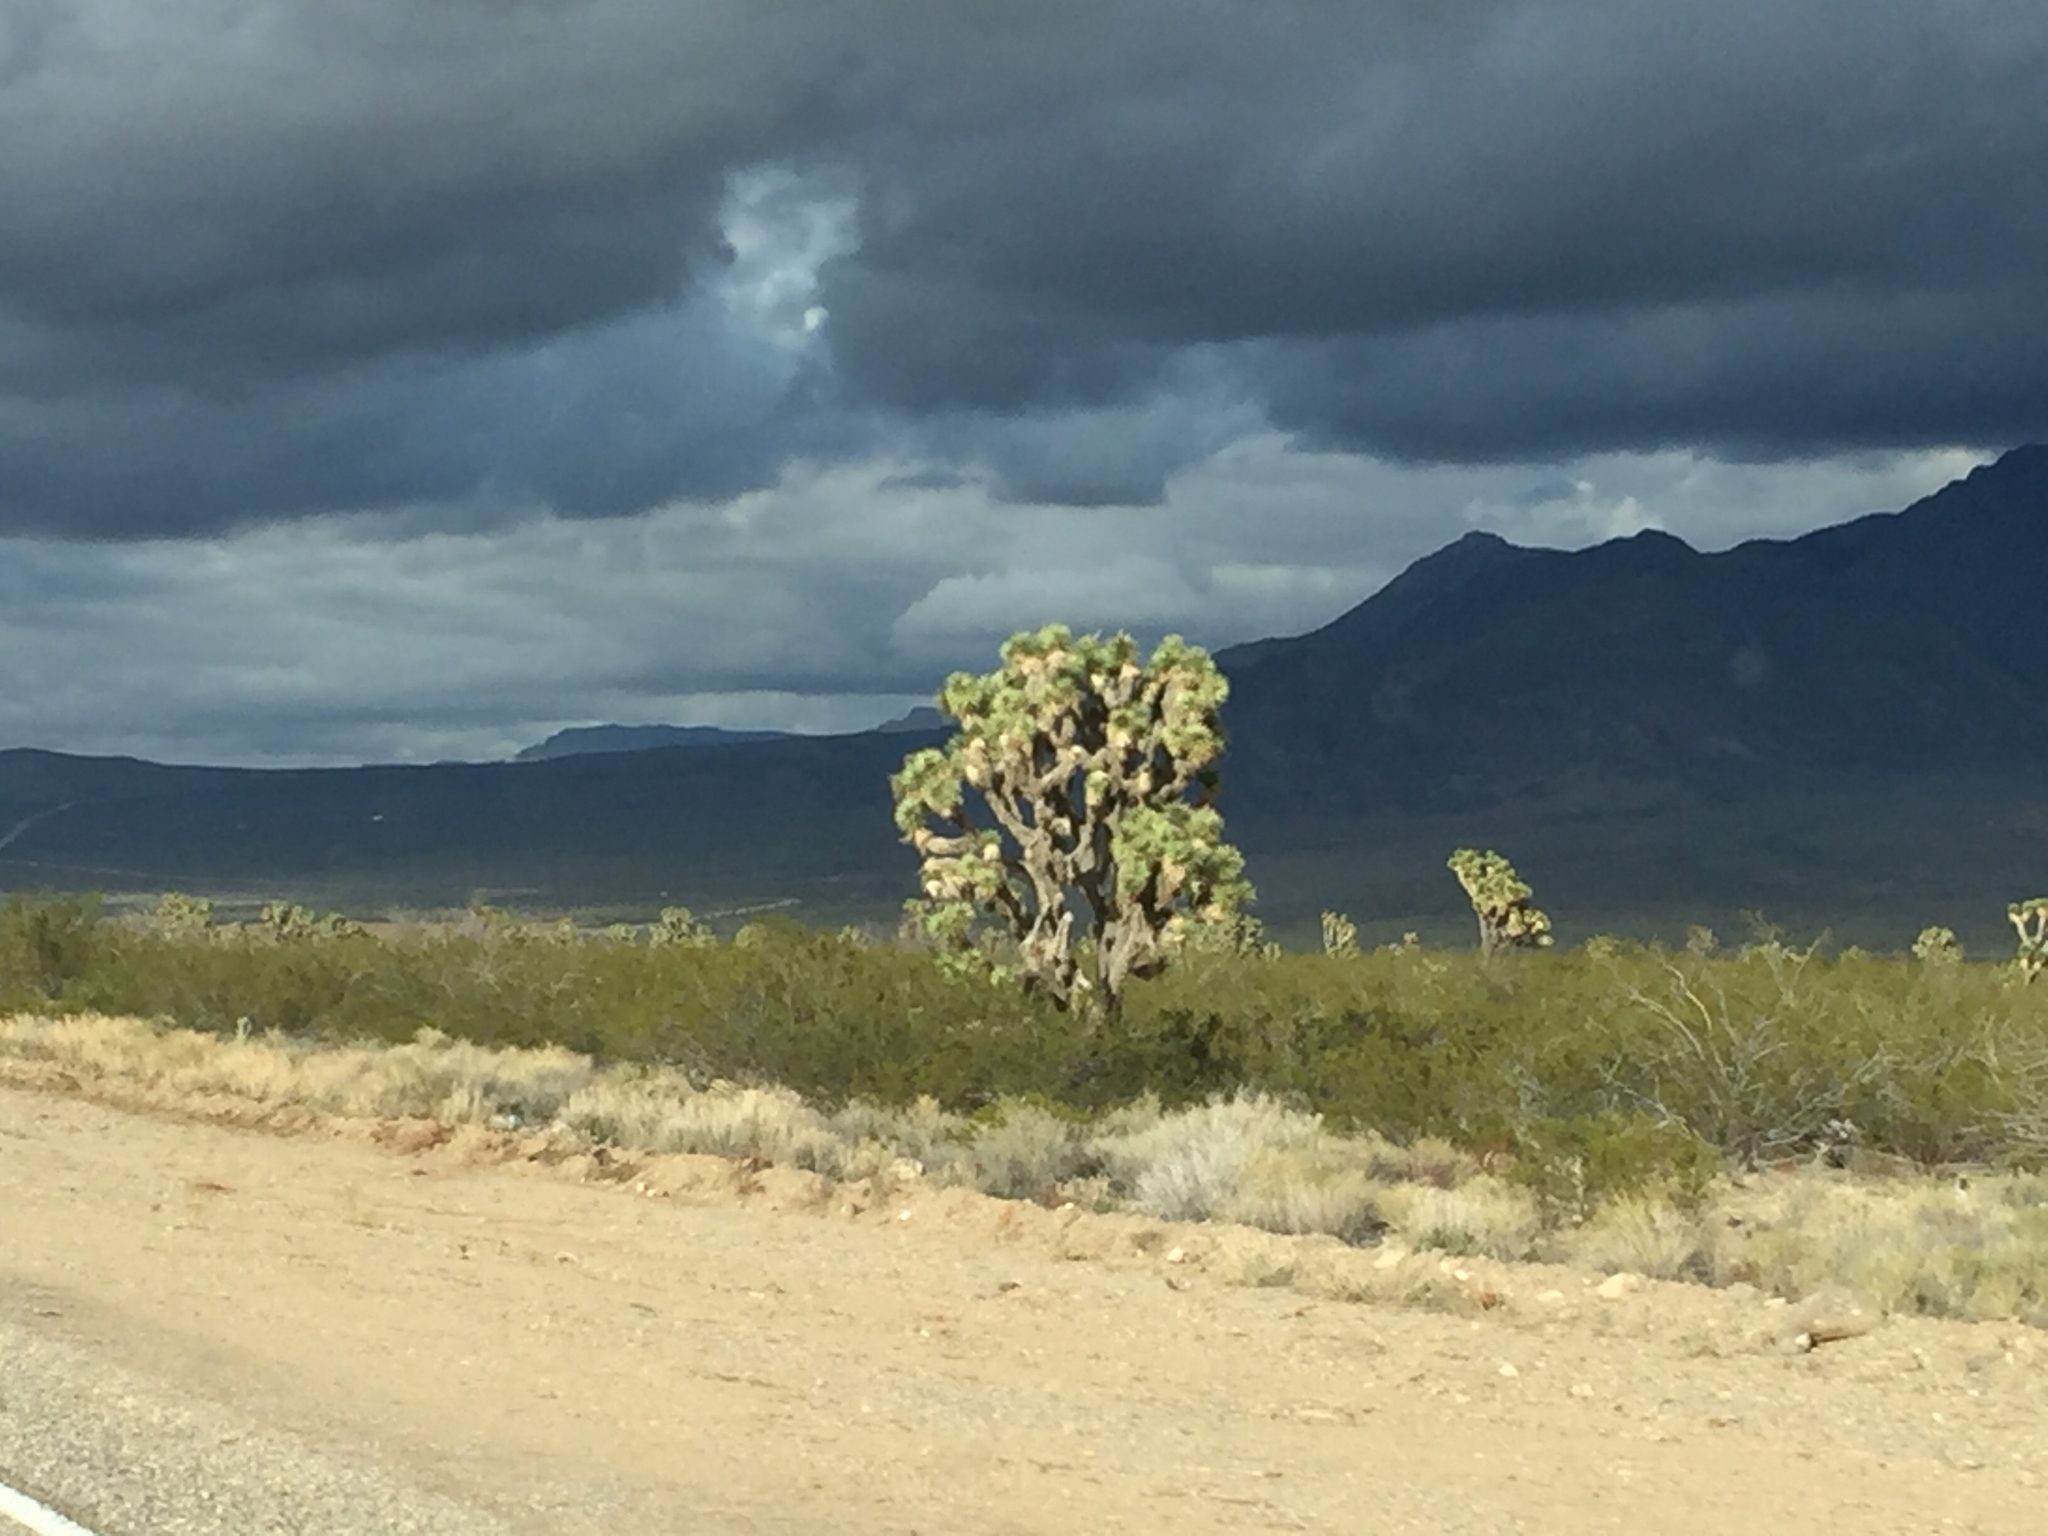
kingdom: Plantae
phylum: Tracheophyta
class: Liliopsida
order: Asparagales
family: Asparagaceae
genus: Yucca
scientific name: Yucca brevifolia
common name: Joshua tree
